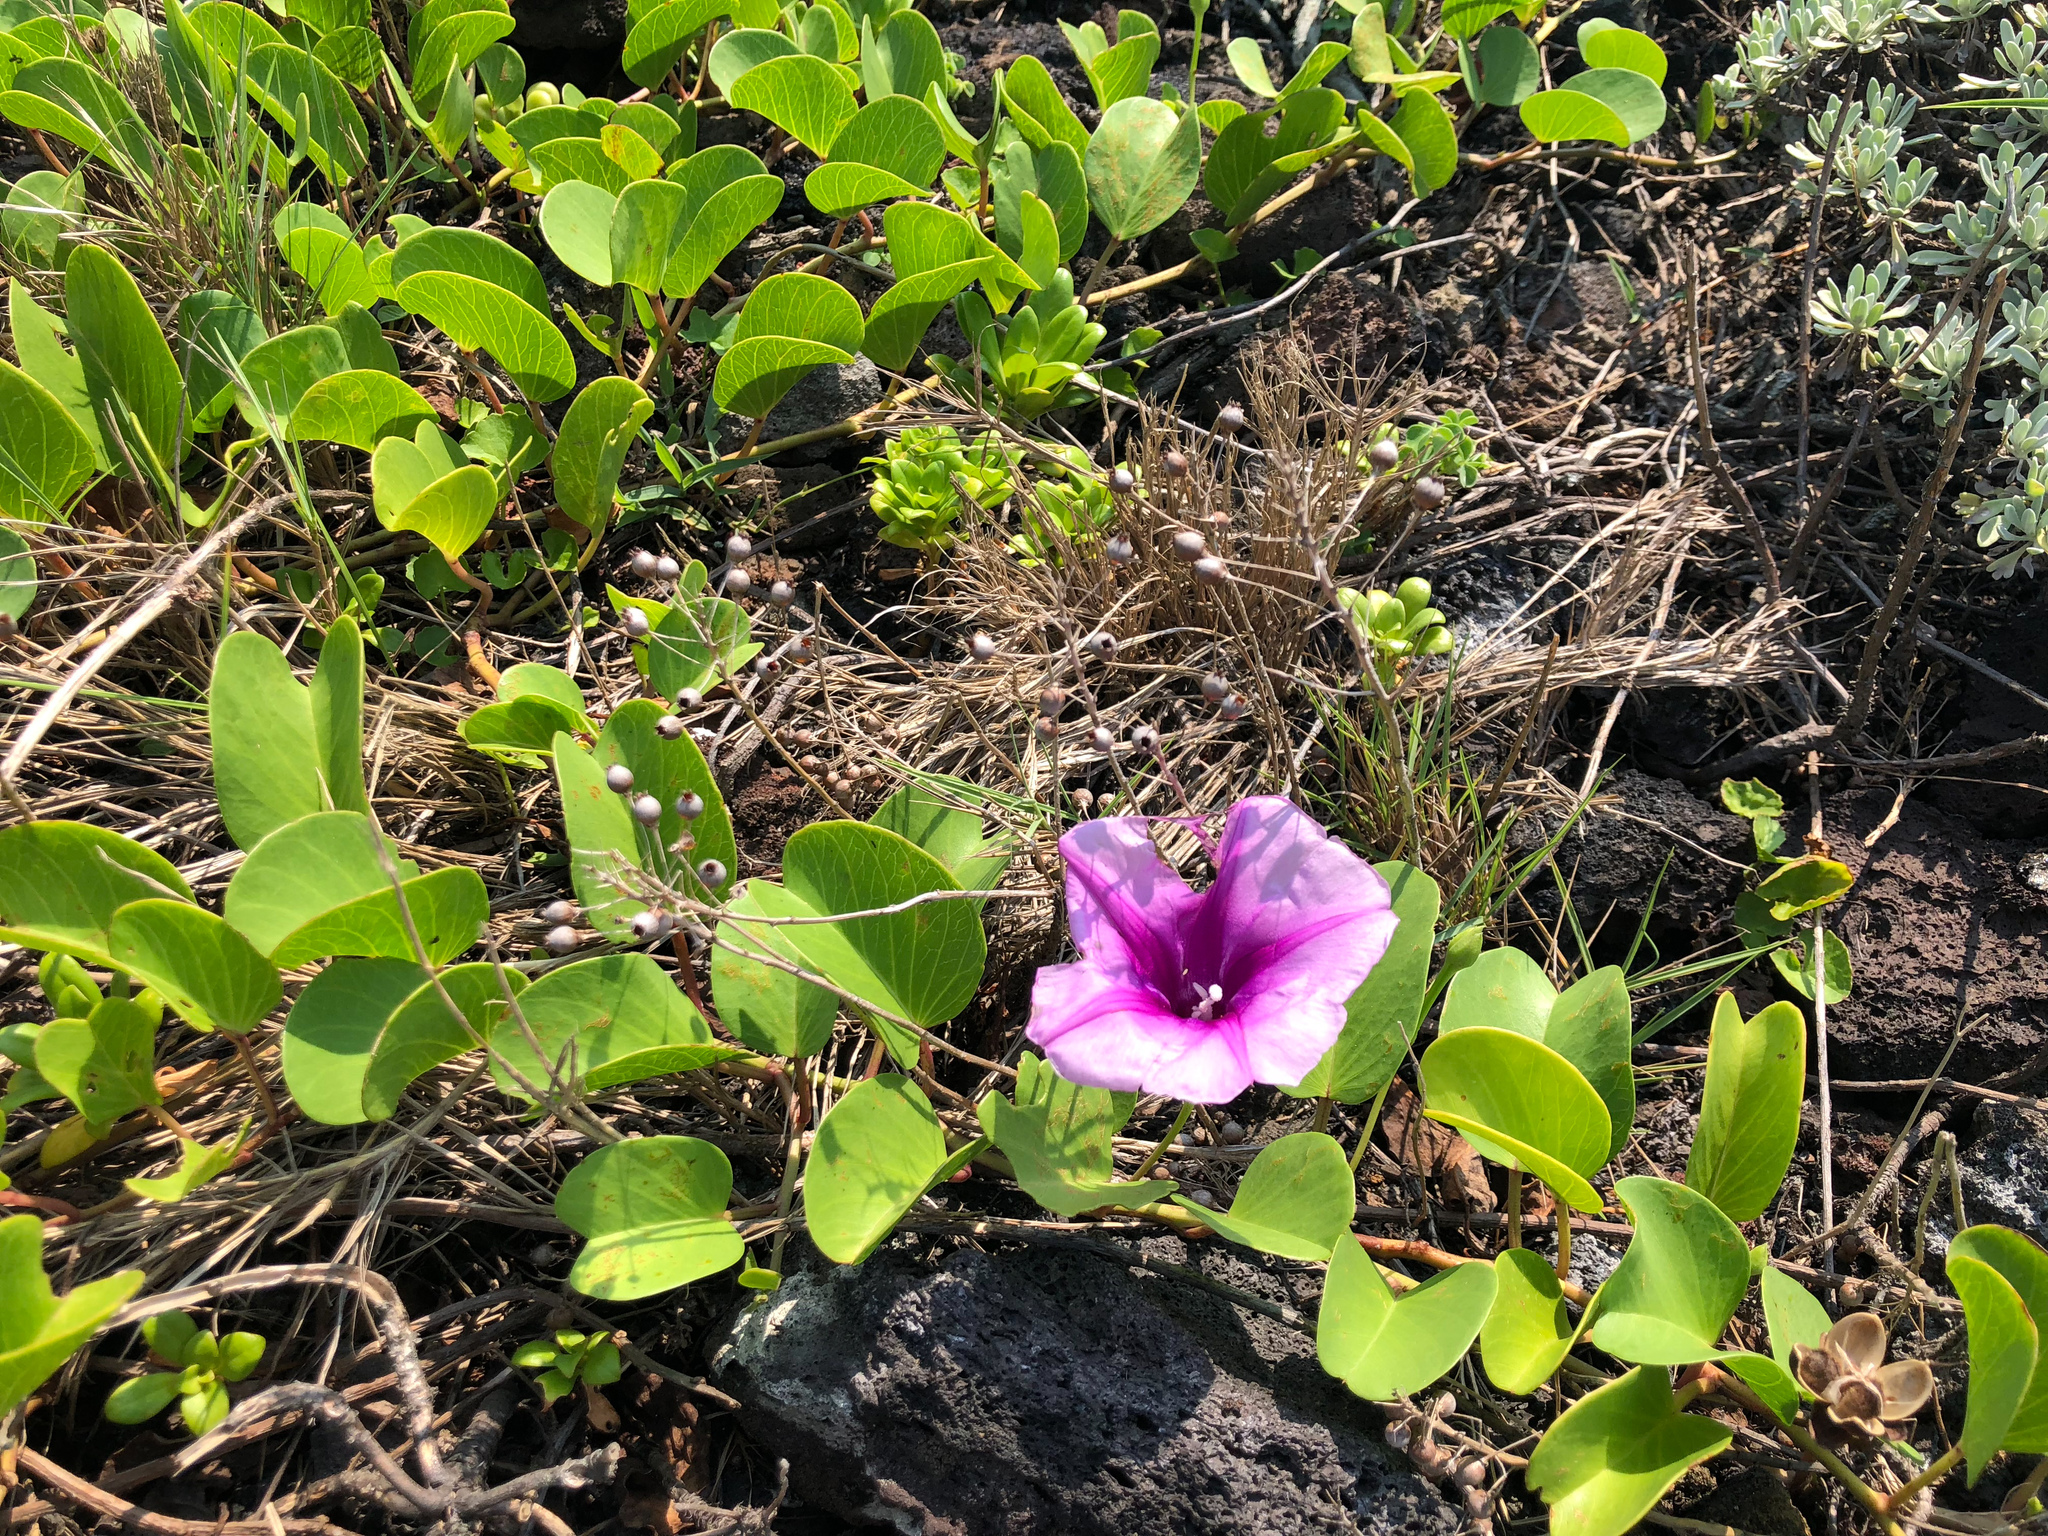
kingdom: Plantae
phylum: Tracheophyta
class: Magnoliopsida
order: Solanales
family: Convolvulaceae
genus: Ipomoea
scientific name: Ipomoea pes-caprae
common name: Beach morning glory
